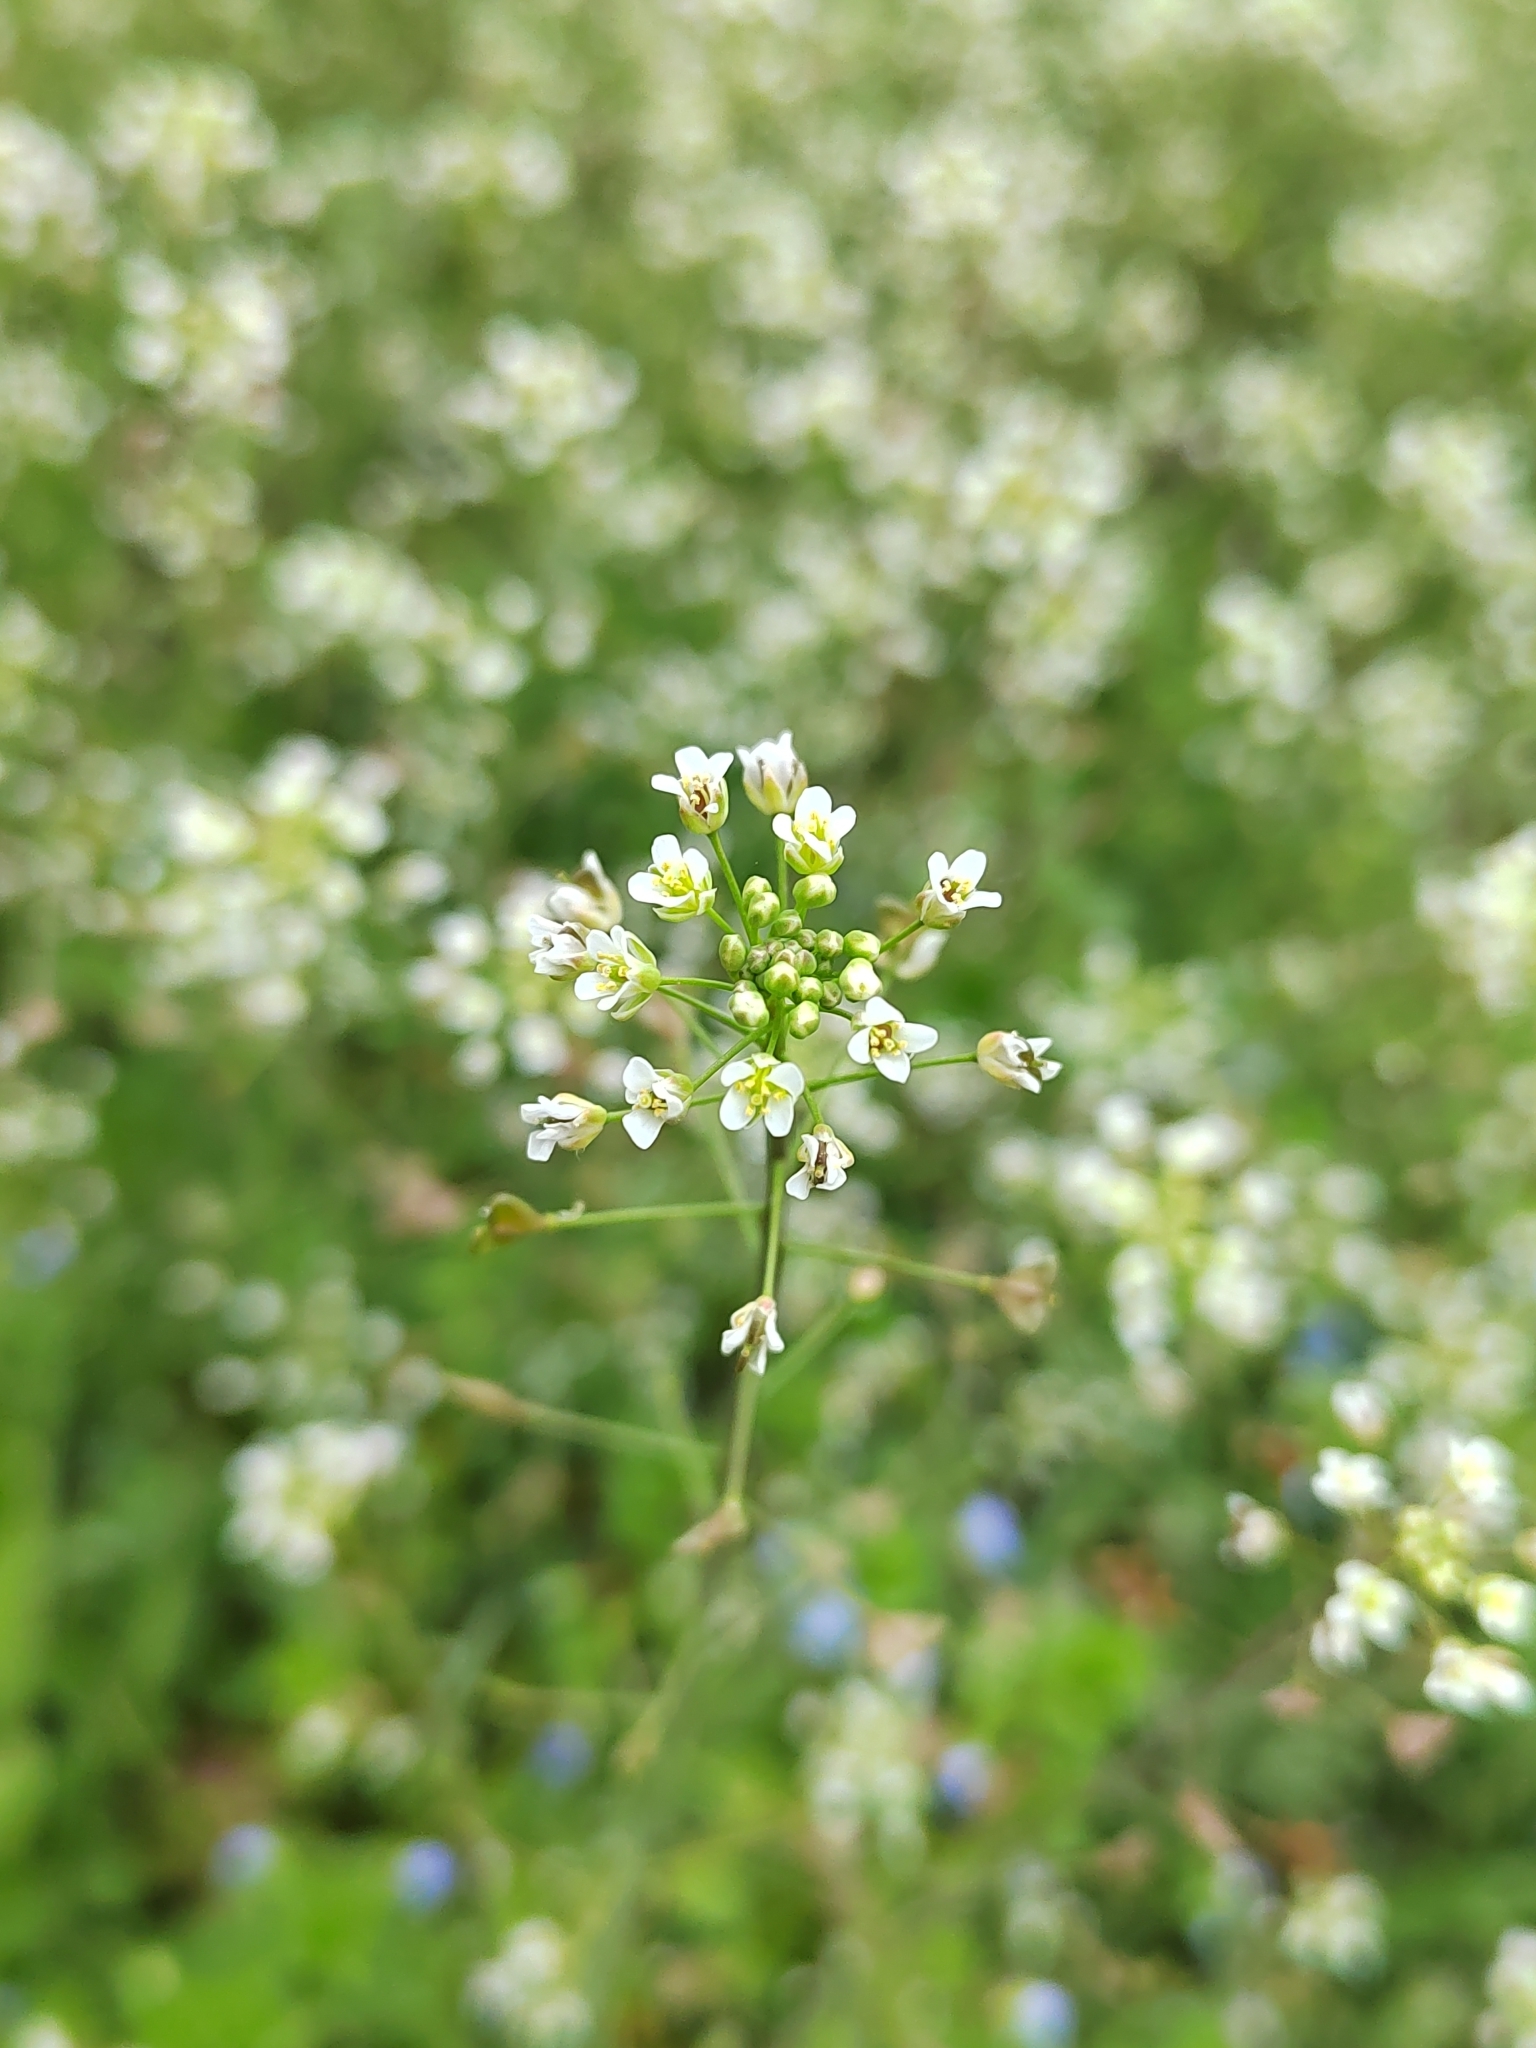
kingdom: Plantae
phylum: Tracheophyta
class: Magnoliopsida
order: Brassicales
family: Brassicaceae
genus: Capsella
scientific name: Capsella bursa-pastoris
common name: Shepherd's purse
